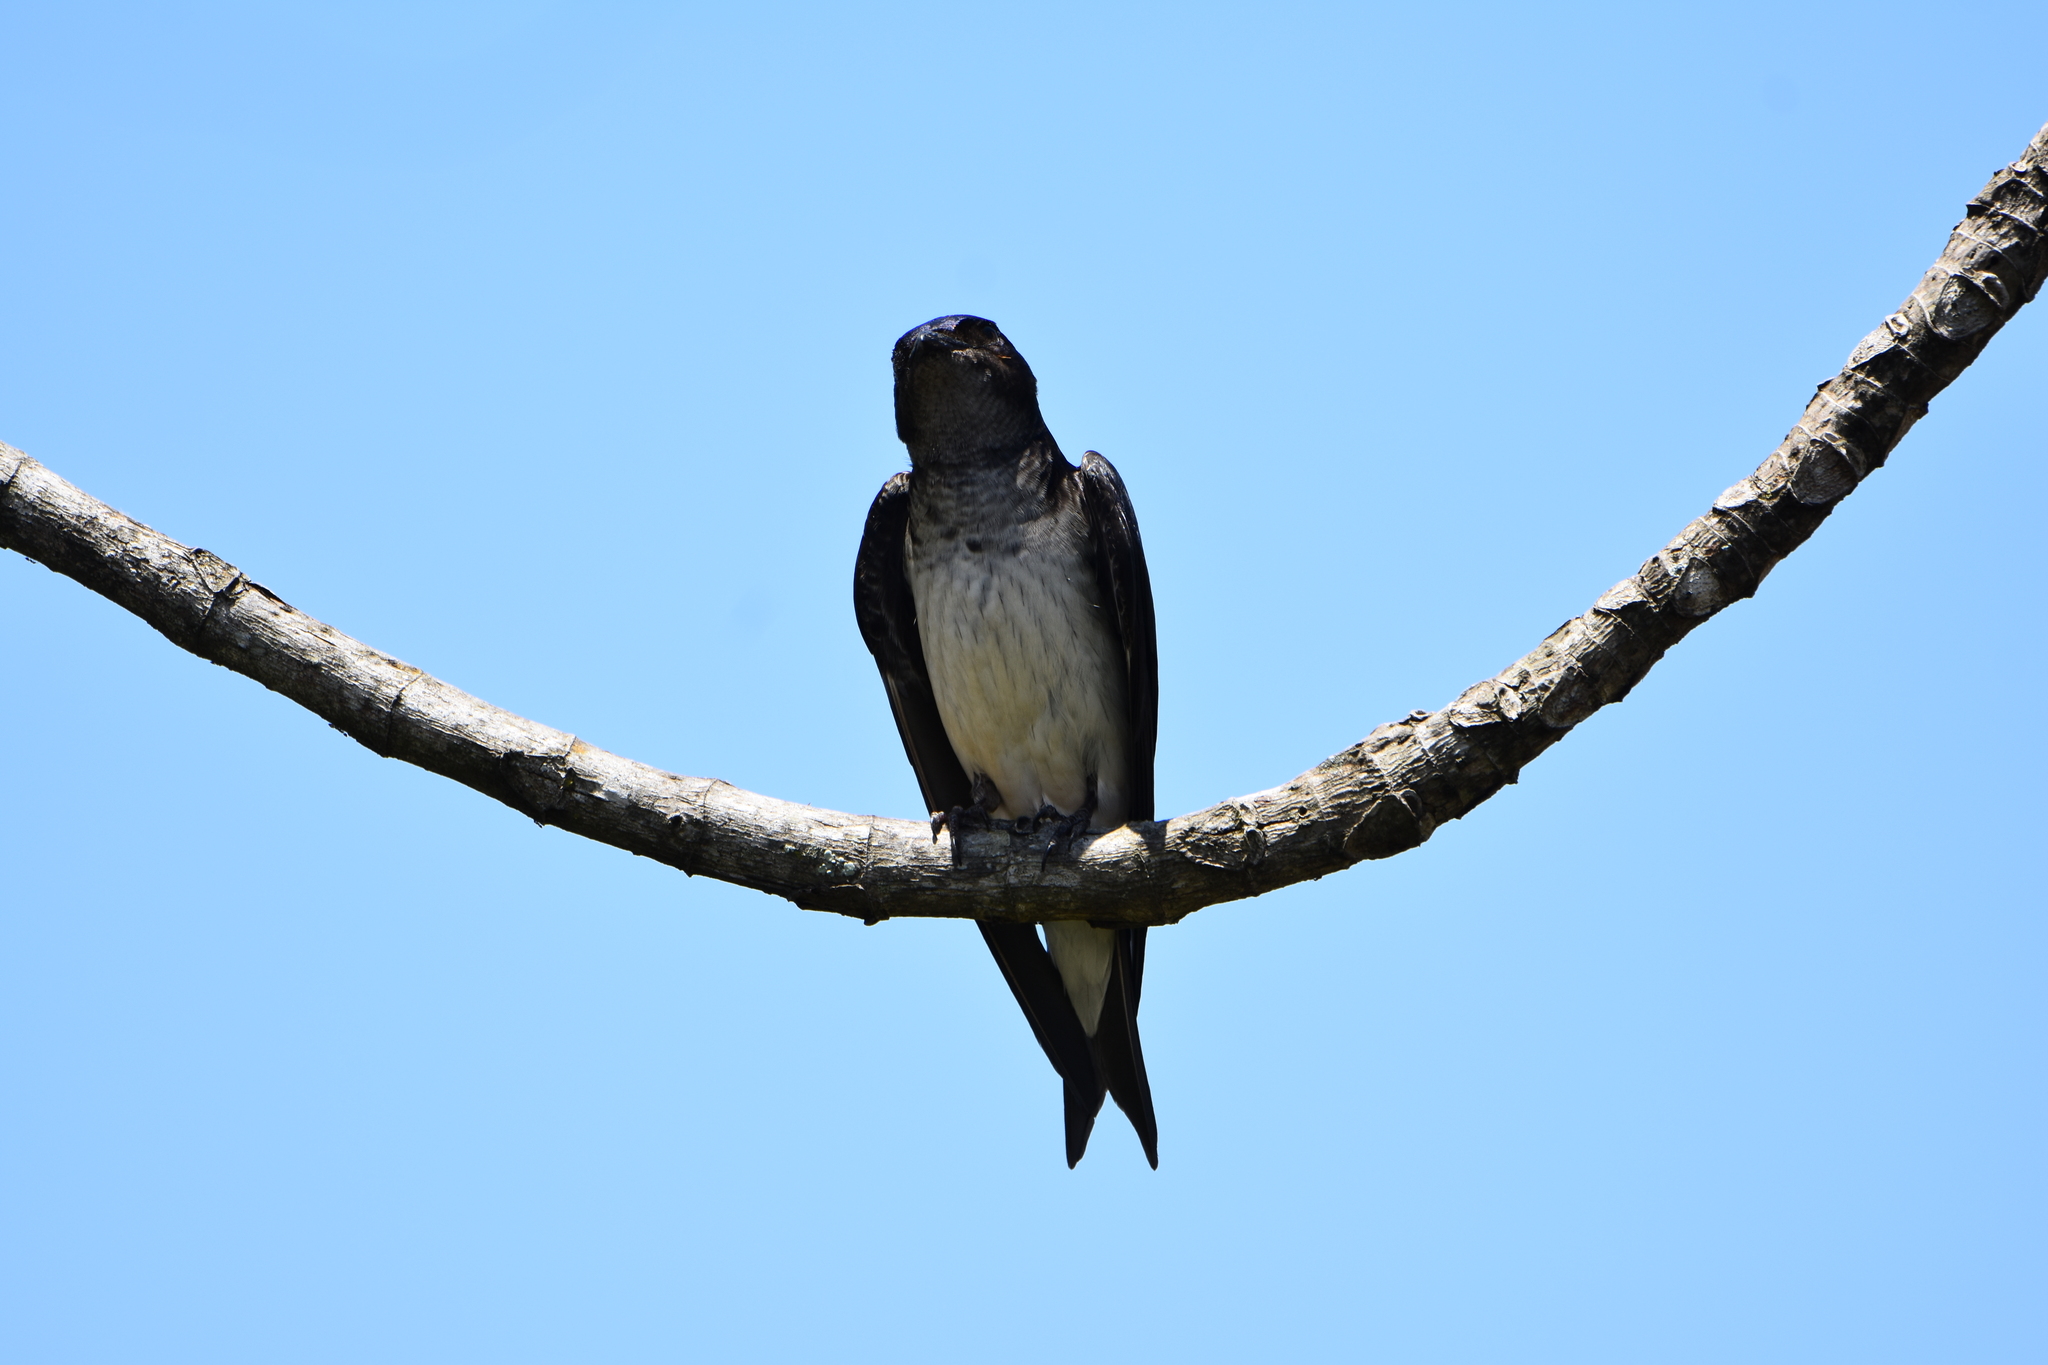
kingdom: Animalia
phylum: Chordata
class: Aves
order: Passeriformes
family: Hirundinidae
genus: Progne
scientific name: Progne chalybea
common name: Grey-breasted martin
